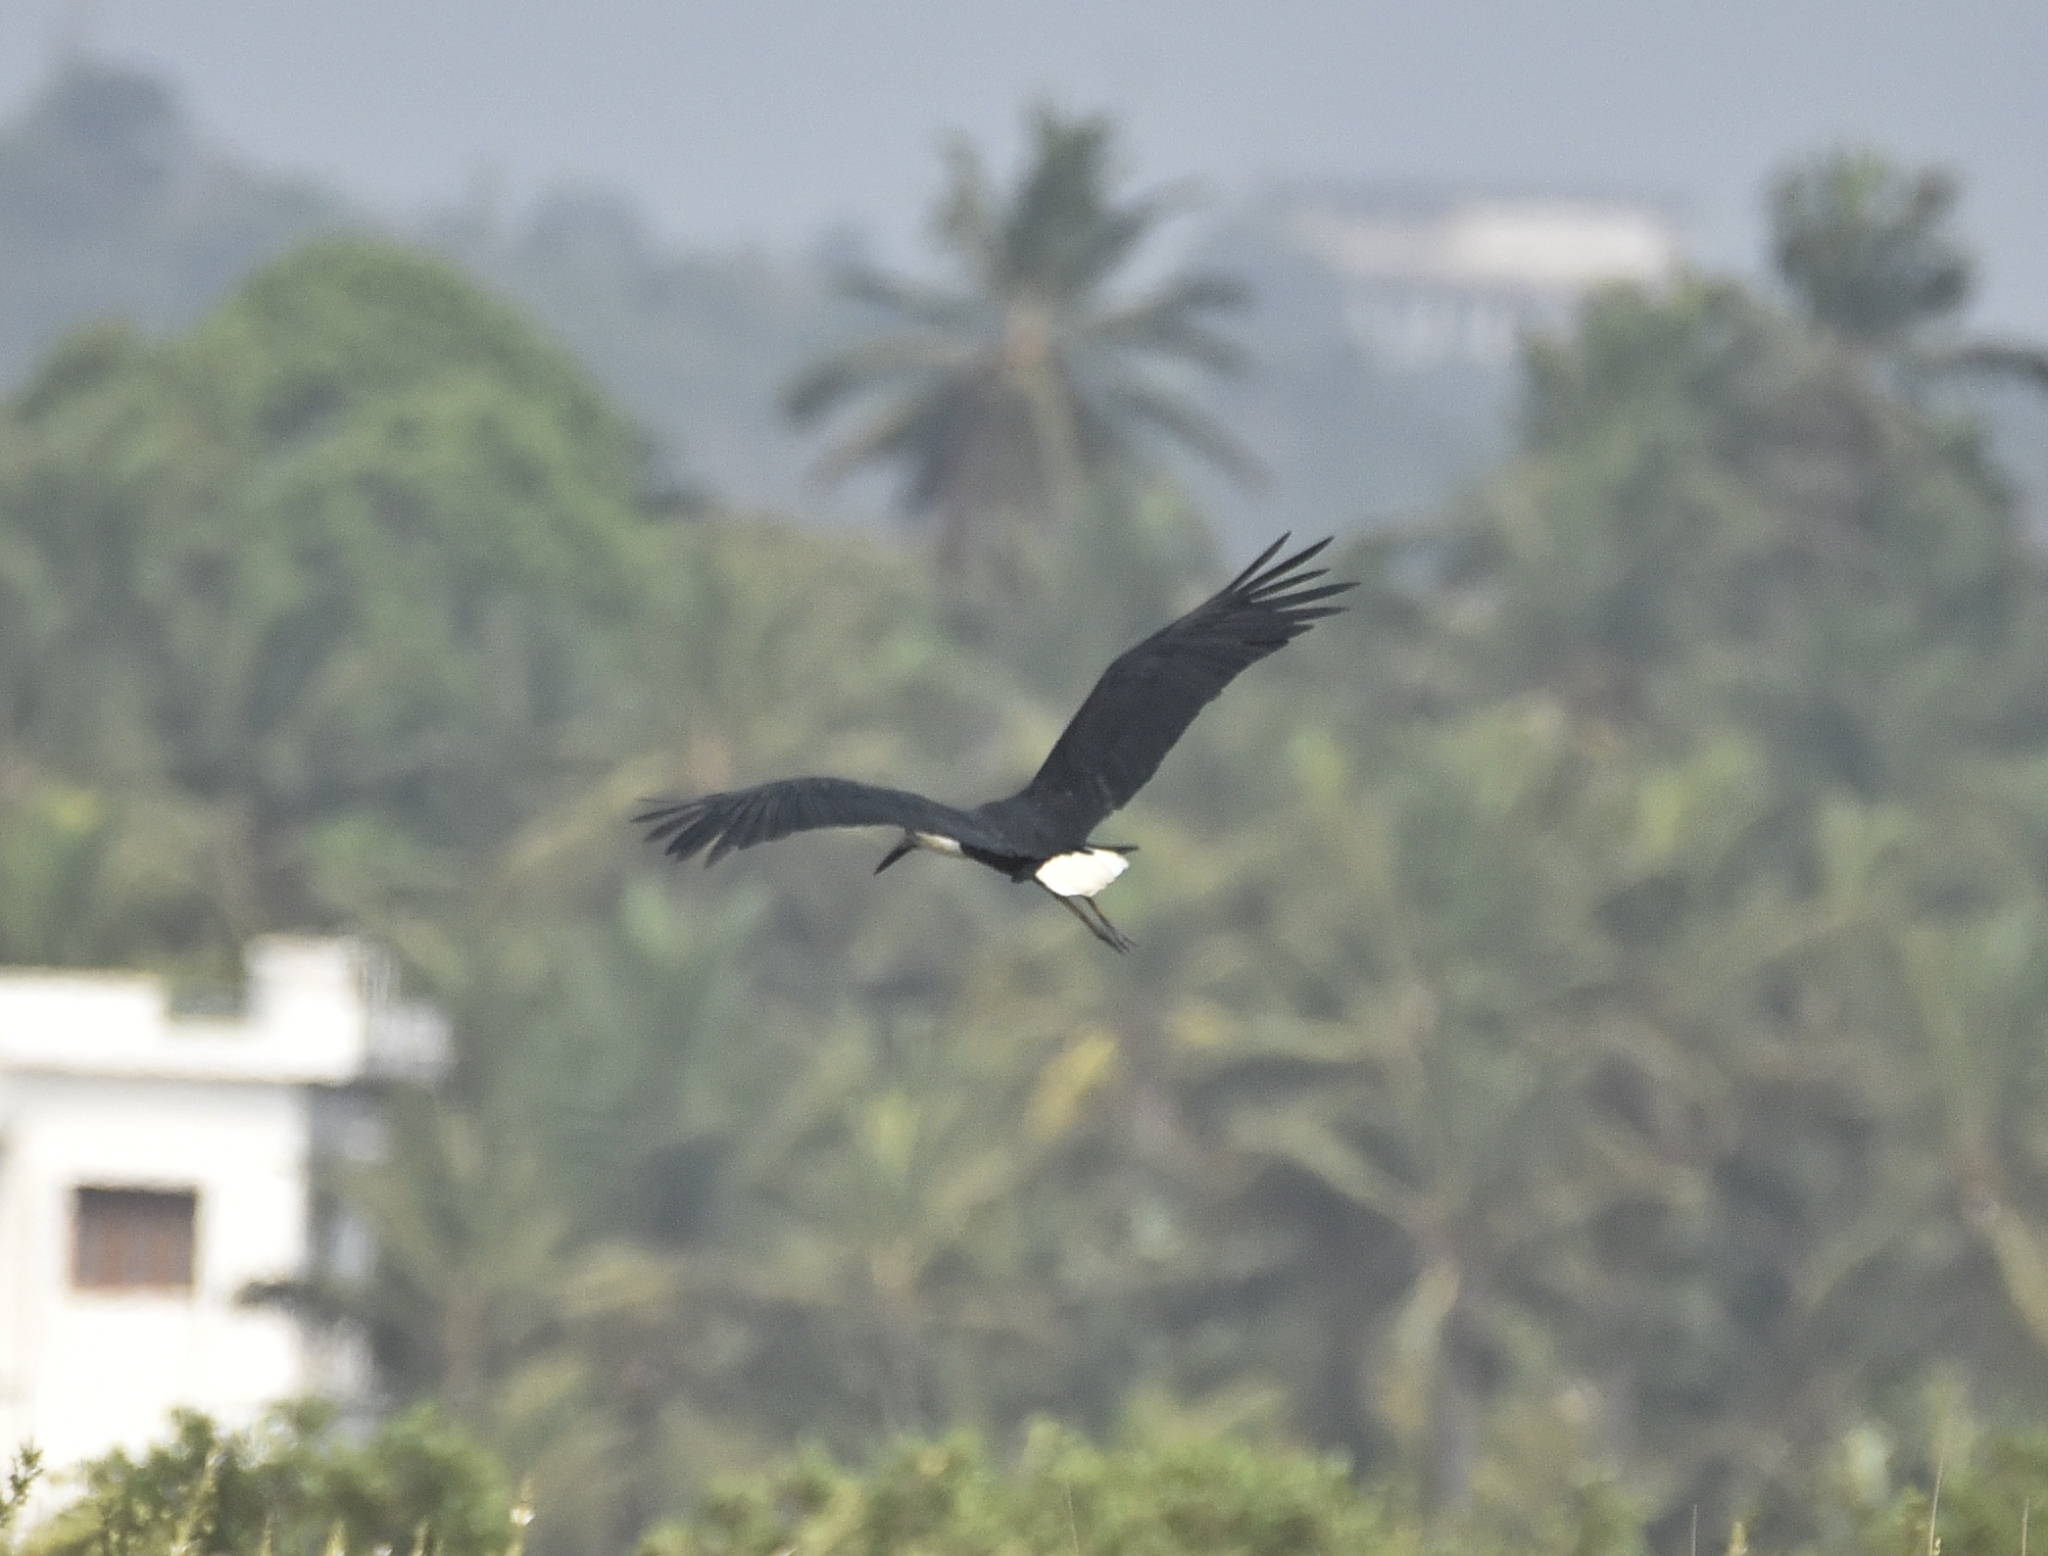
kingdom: Animalia
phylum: Chordata
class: Aves
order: Ciconiiformes
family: Ciconiidae
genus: Ciconia
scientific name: Ciconia episcopus
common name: Woolly-necked stork
